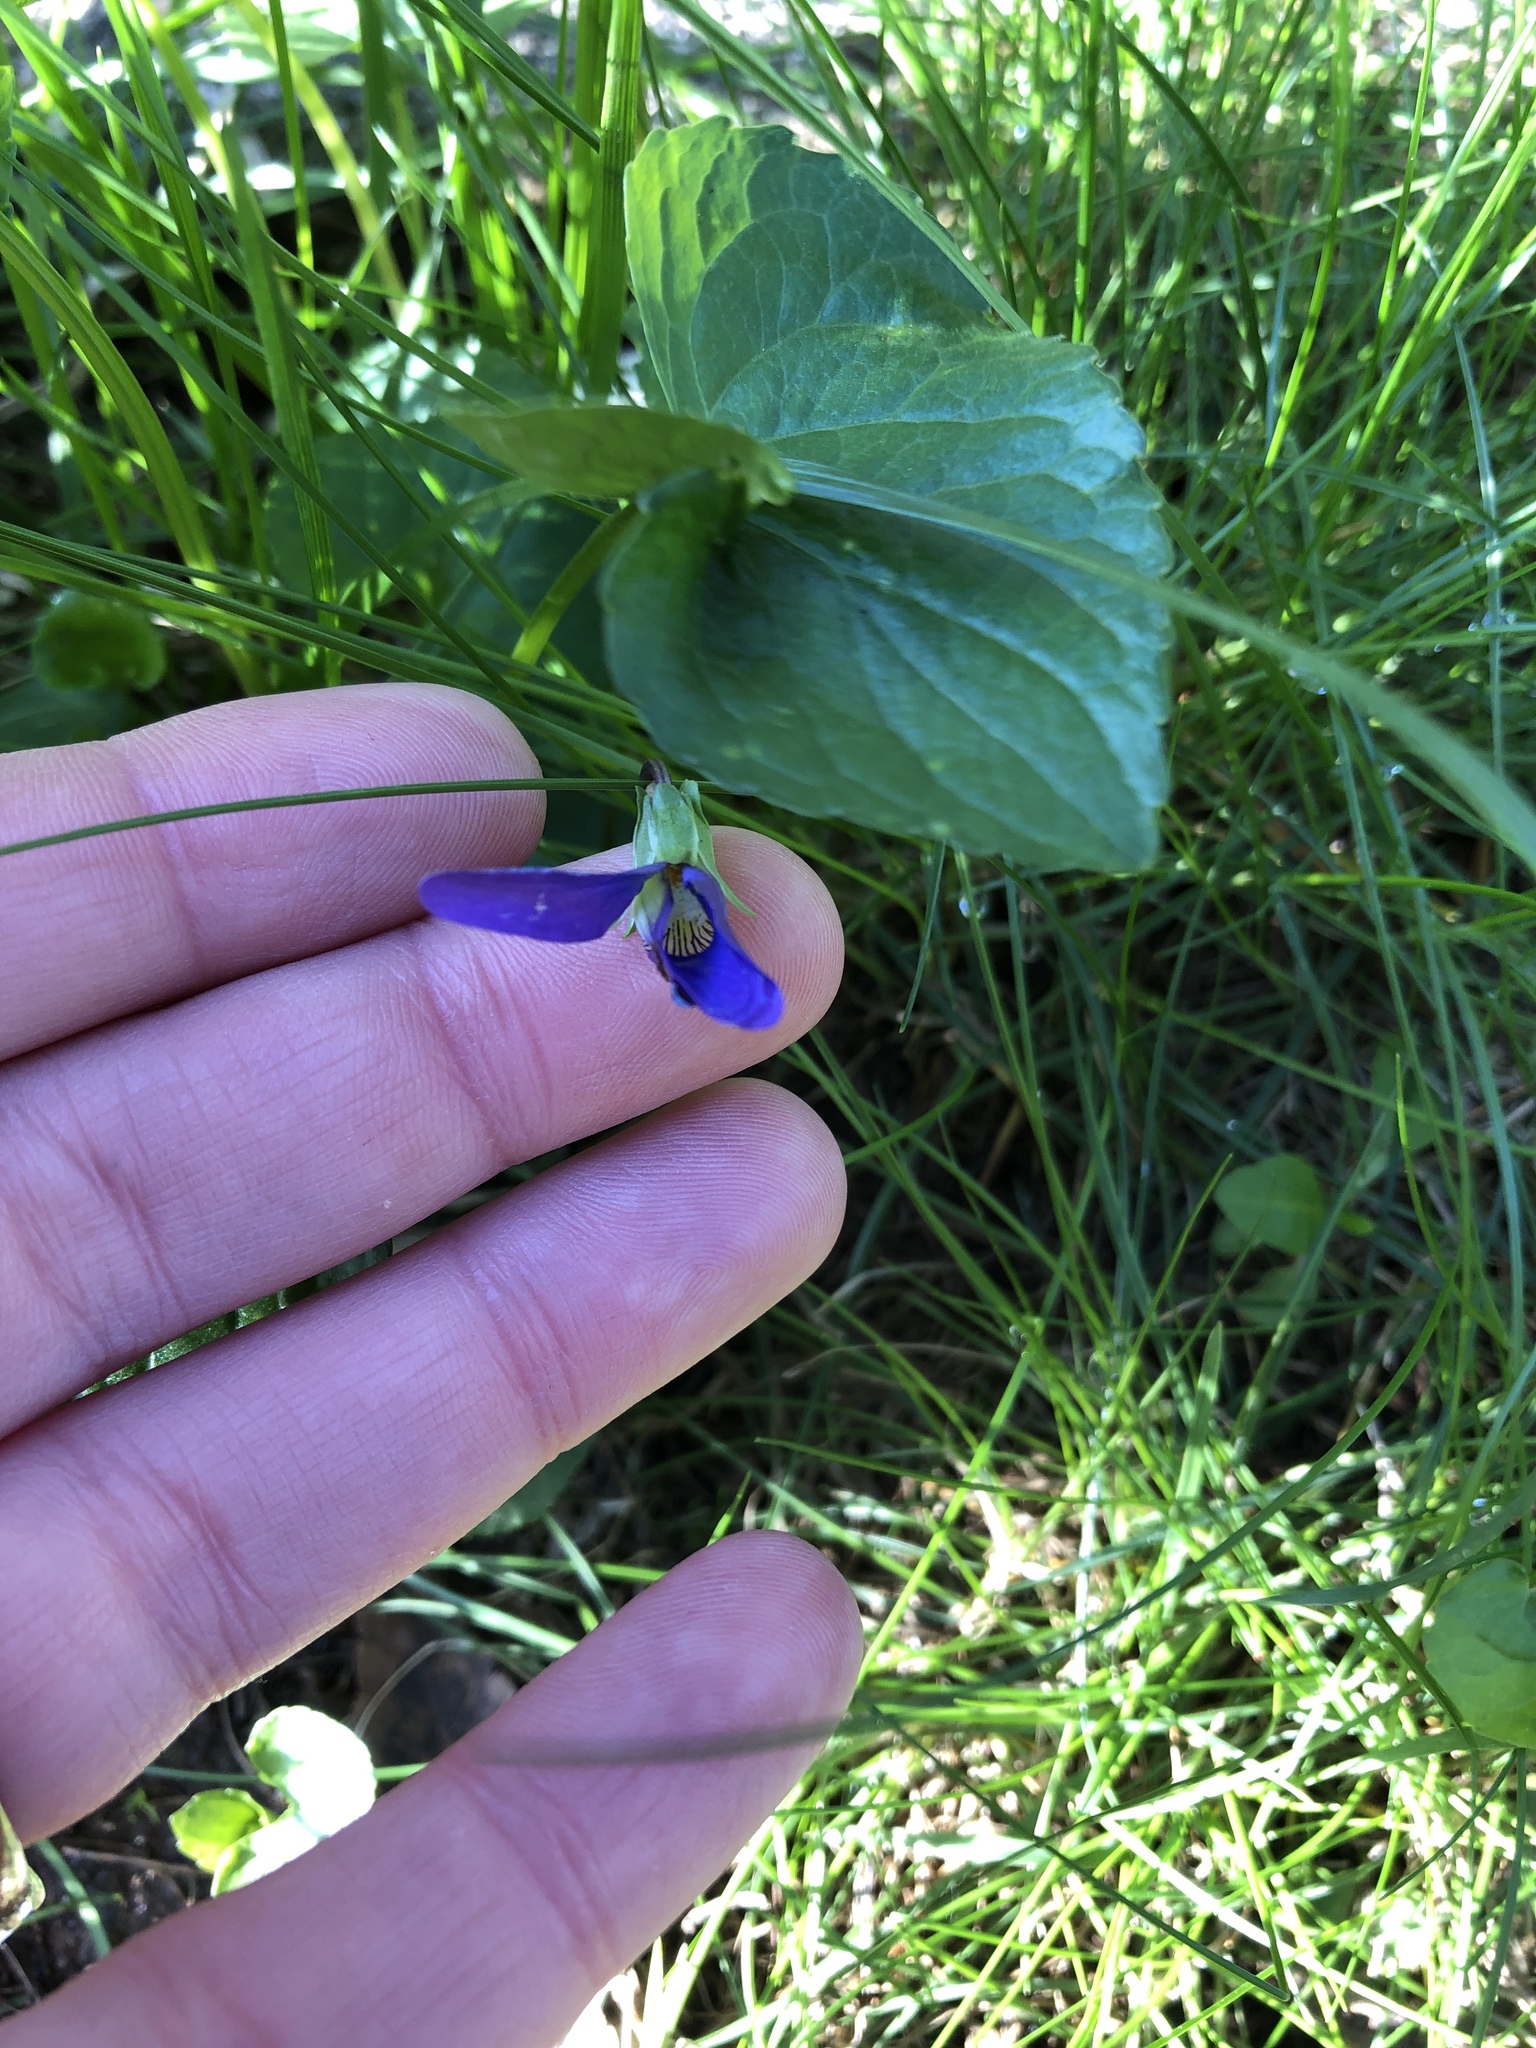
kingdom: Plantae
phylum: Tracheophyta
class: Magnoliopsida
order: Malpighiales
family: Violaceae
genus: Viola
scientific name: Viola sororia
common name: Dooryard violet
